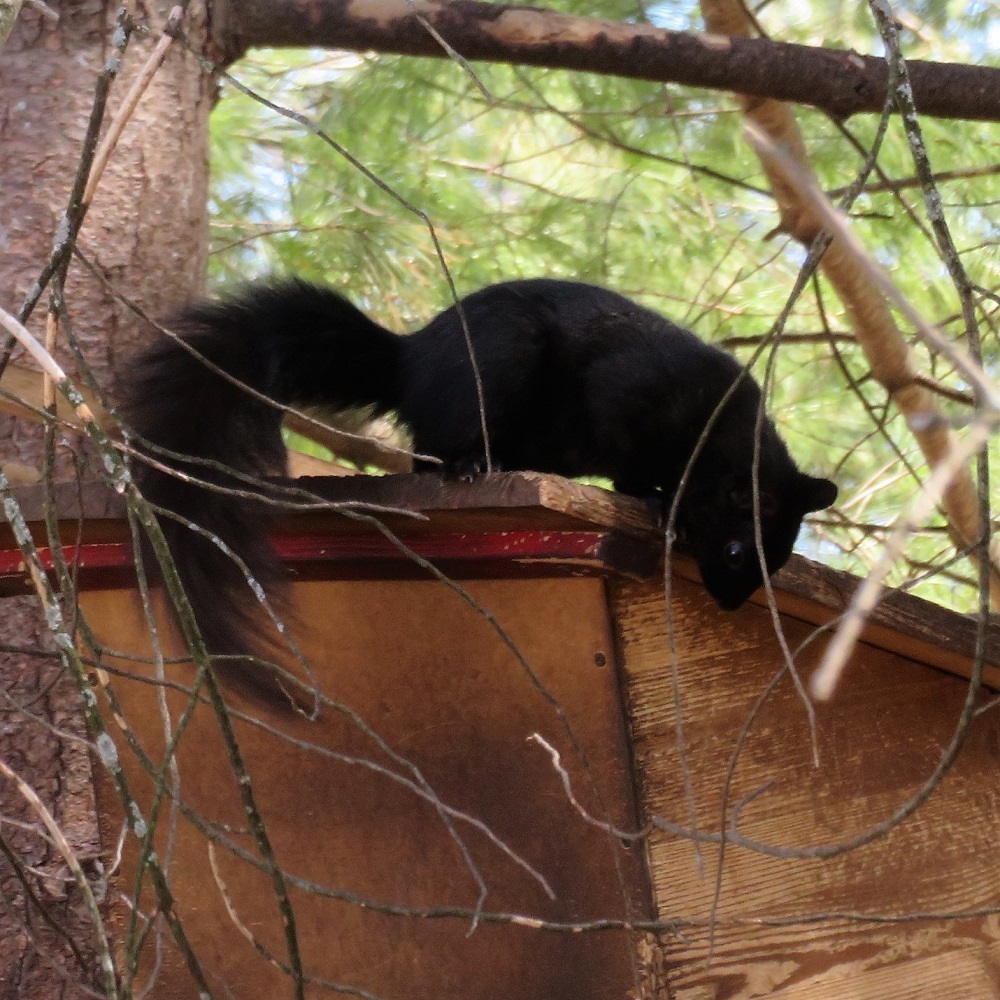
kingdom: Animalia
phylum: Chordata
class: Mammalia
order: Rodentia
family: Sciuridae
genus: Sciurus
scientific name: Sciurus carolinensis
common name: Eastern gray squirrel
